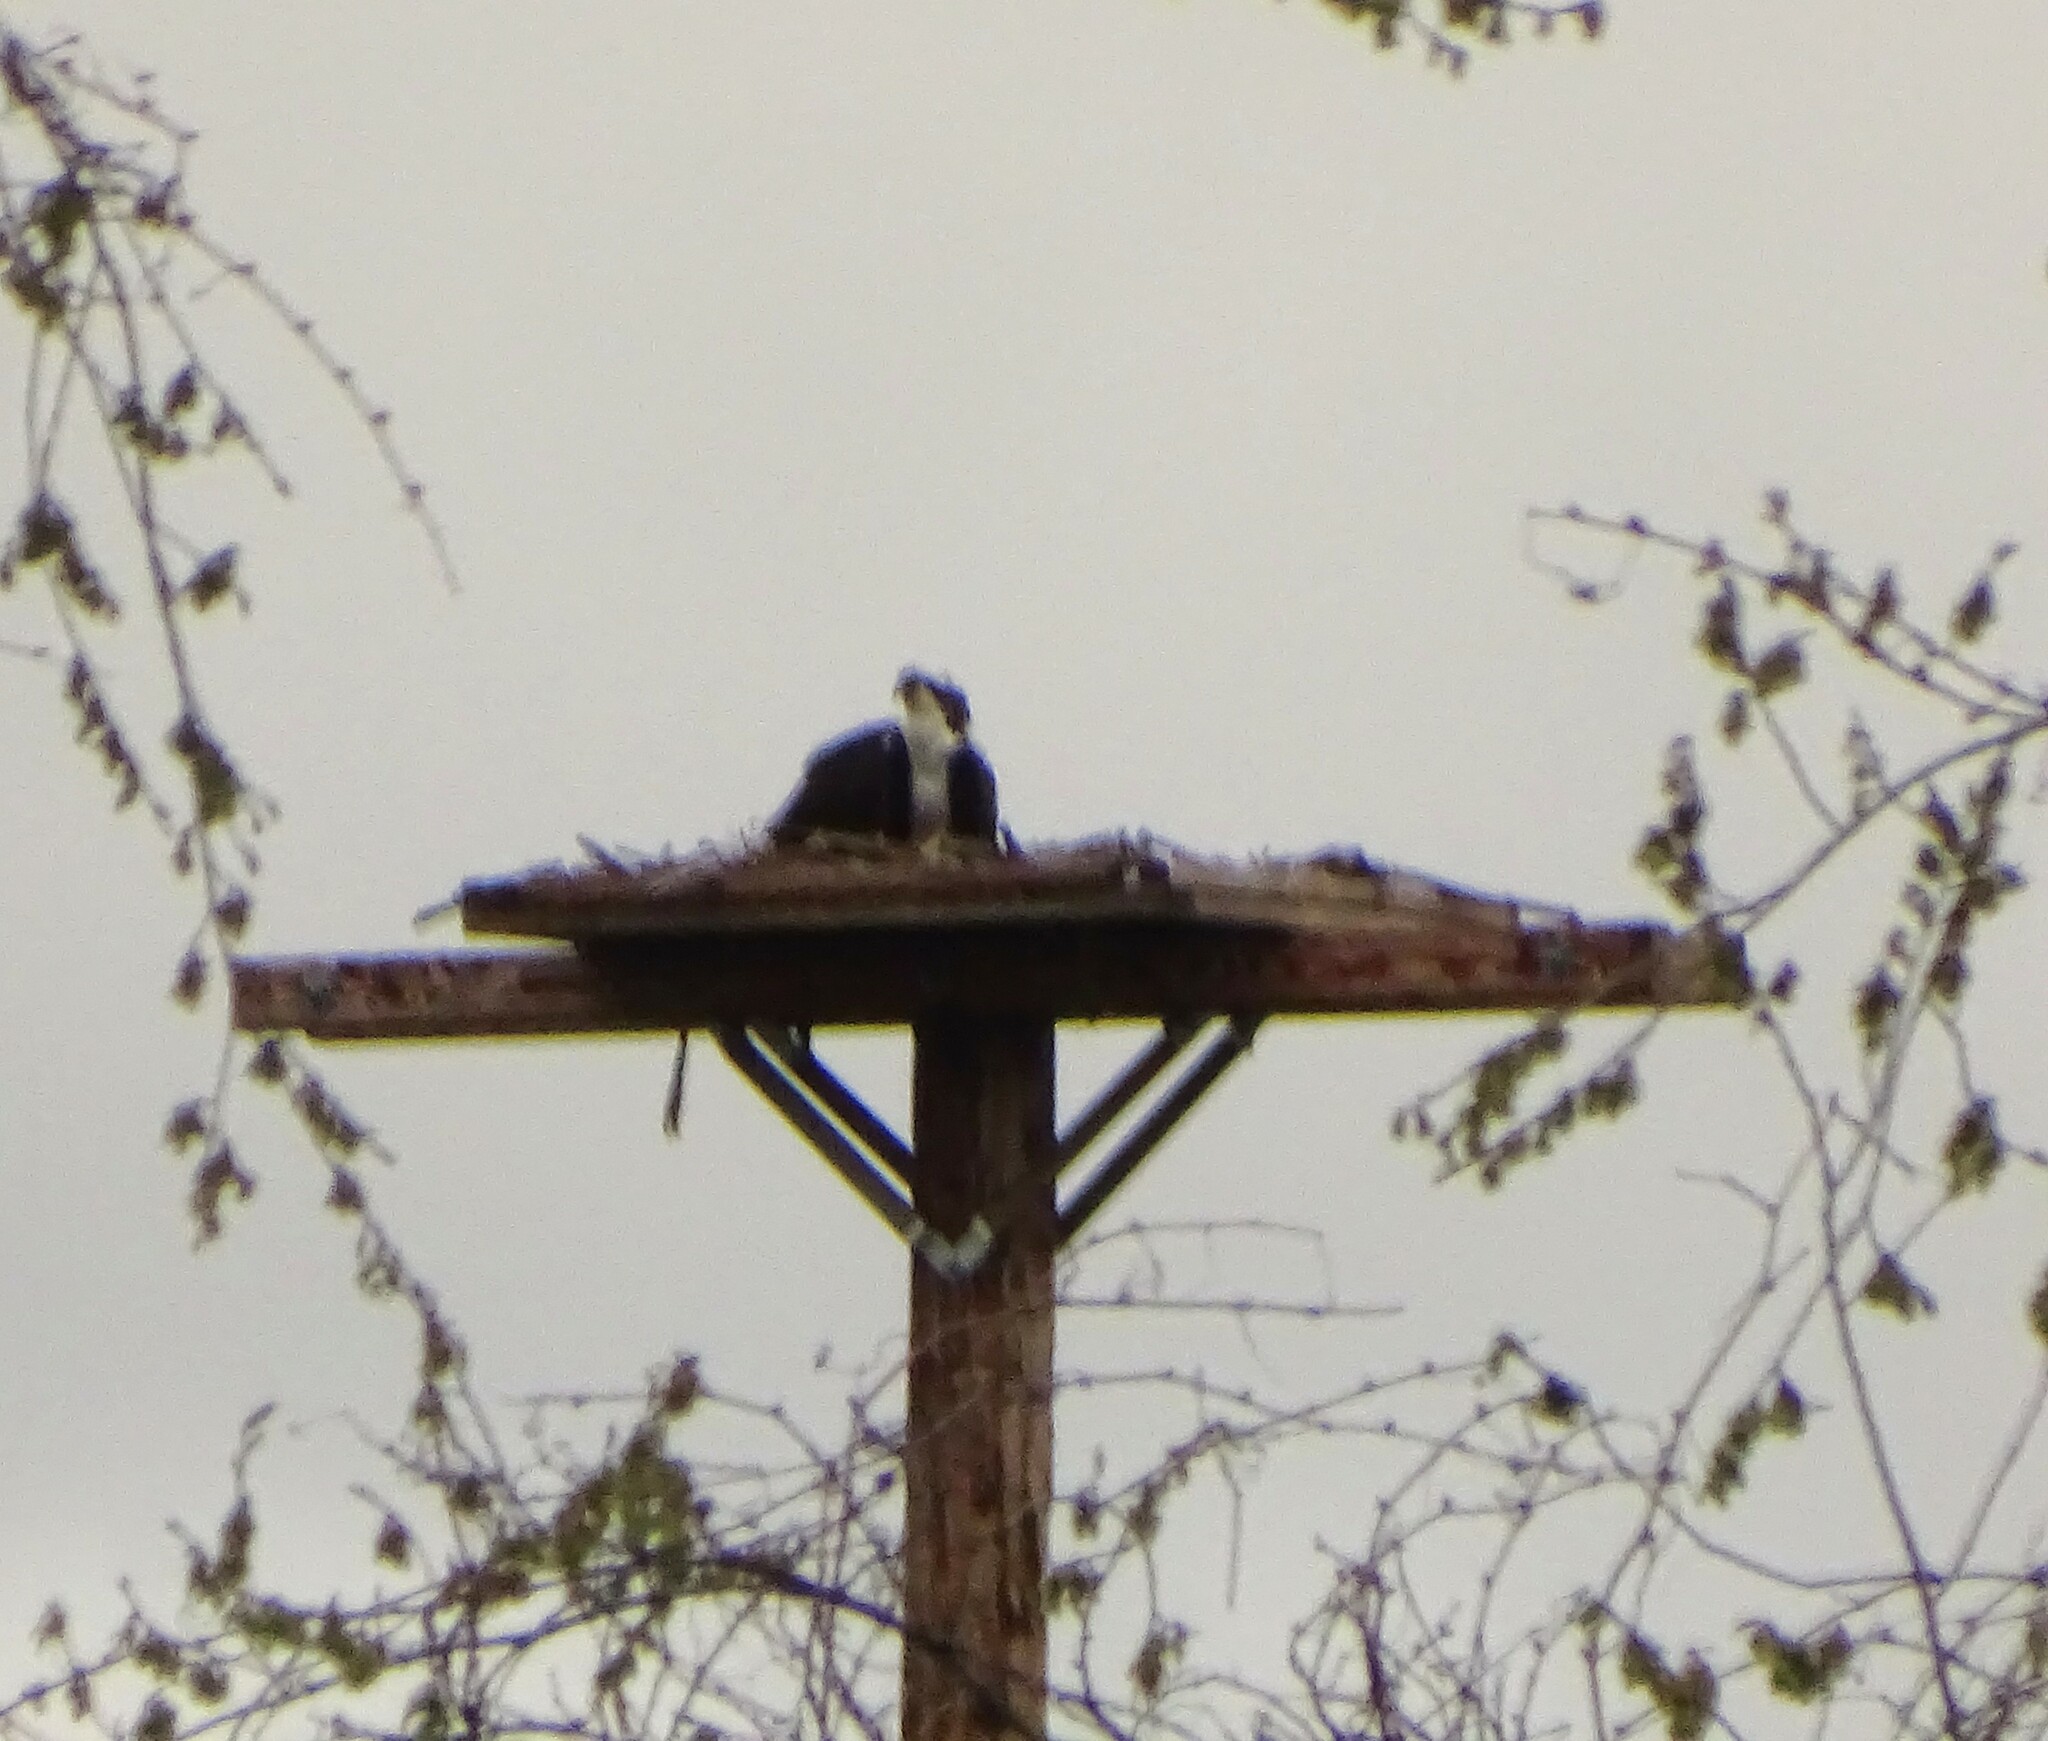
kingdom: Animalia
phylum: Chordata
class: Aves
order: Accipitriformes
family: Pandionidae
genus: Pandion
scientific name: Pandion haliaetus
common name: Osprey
